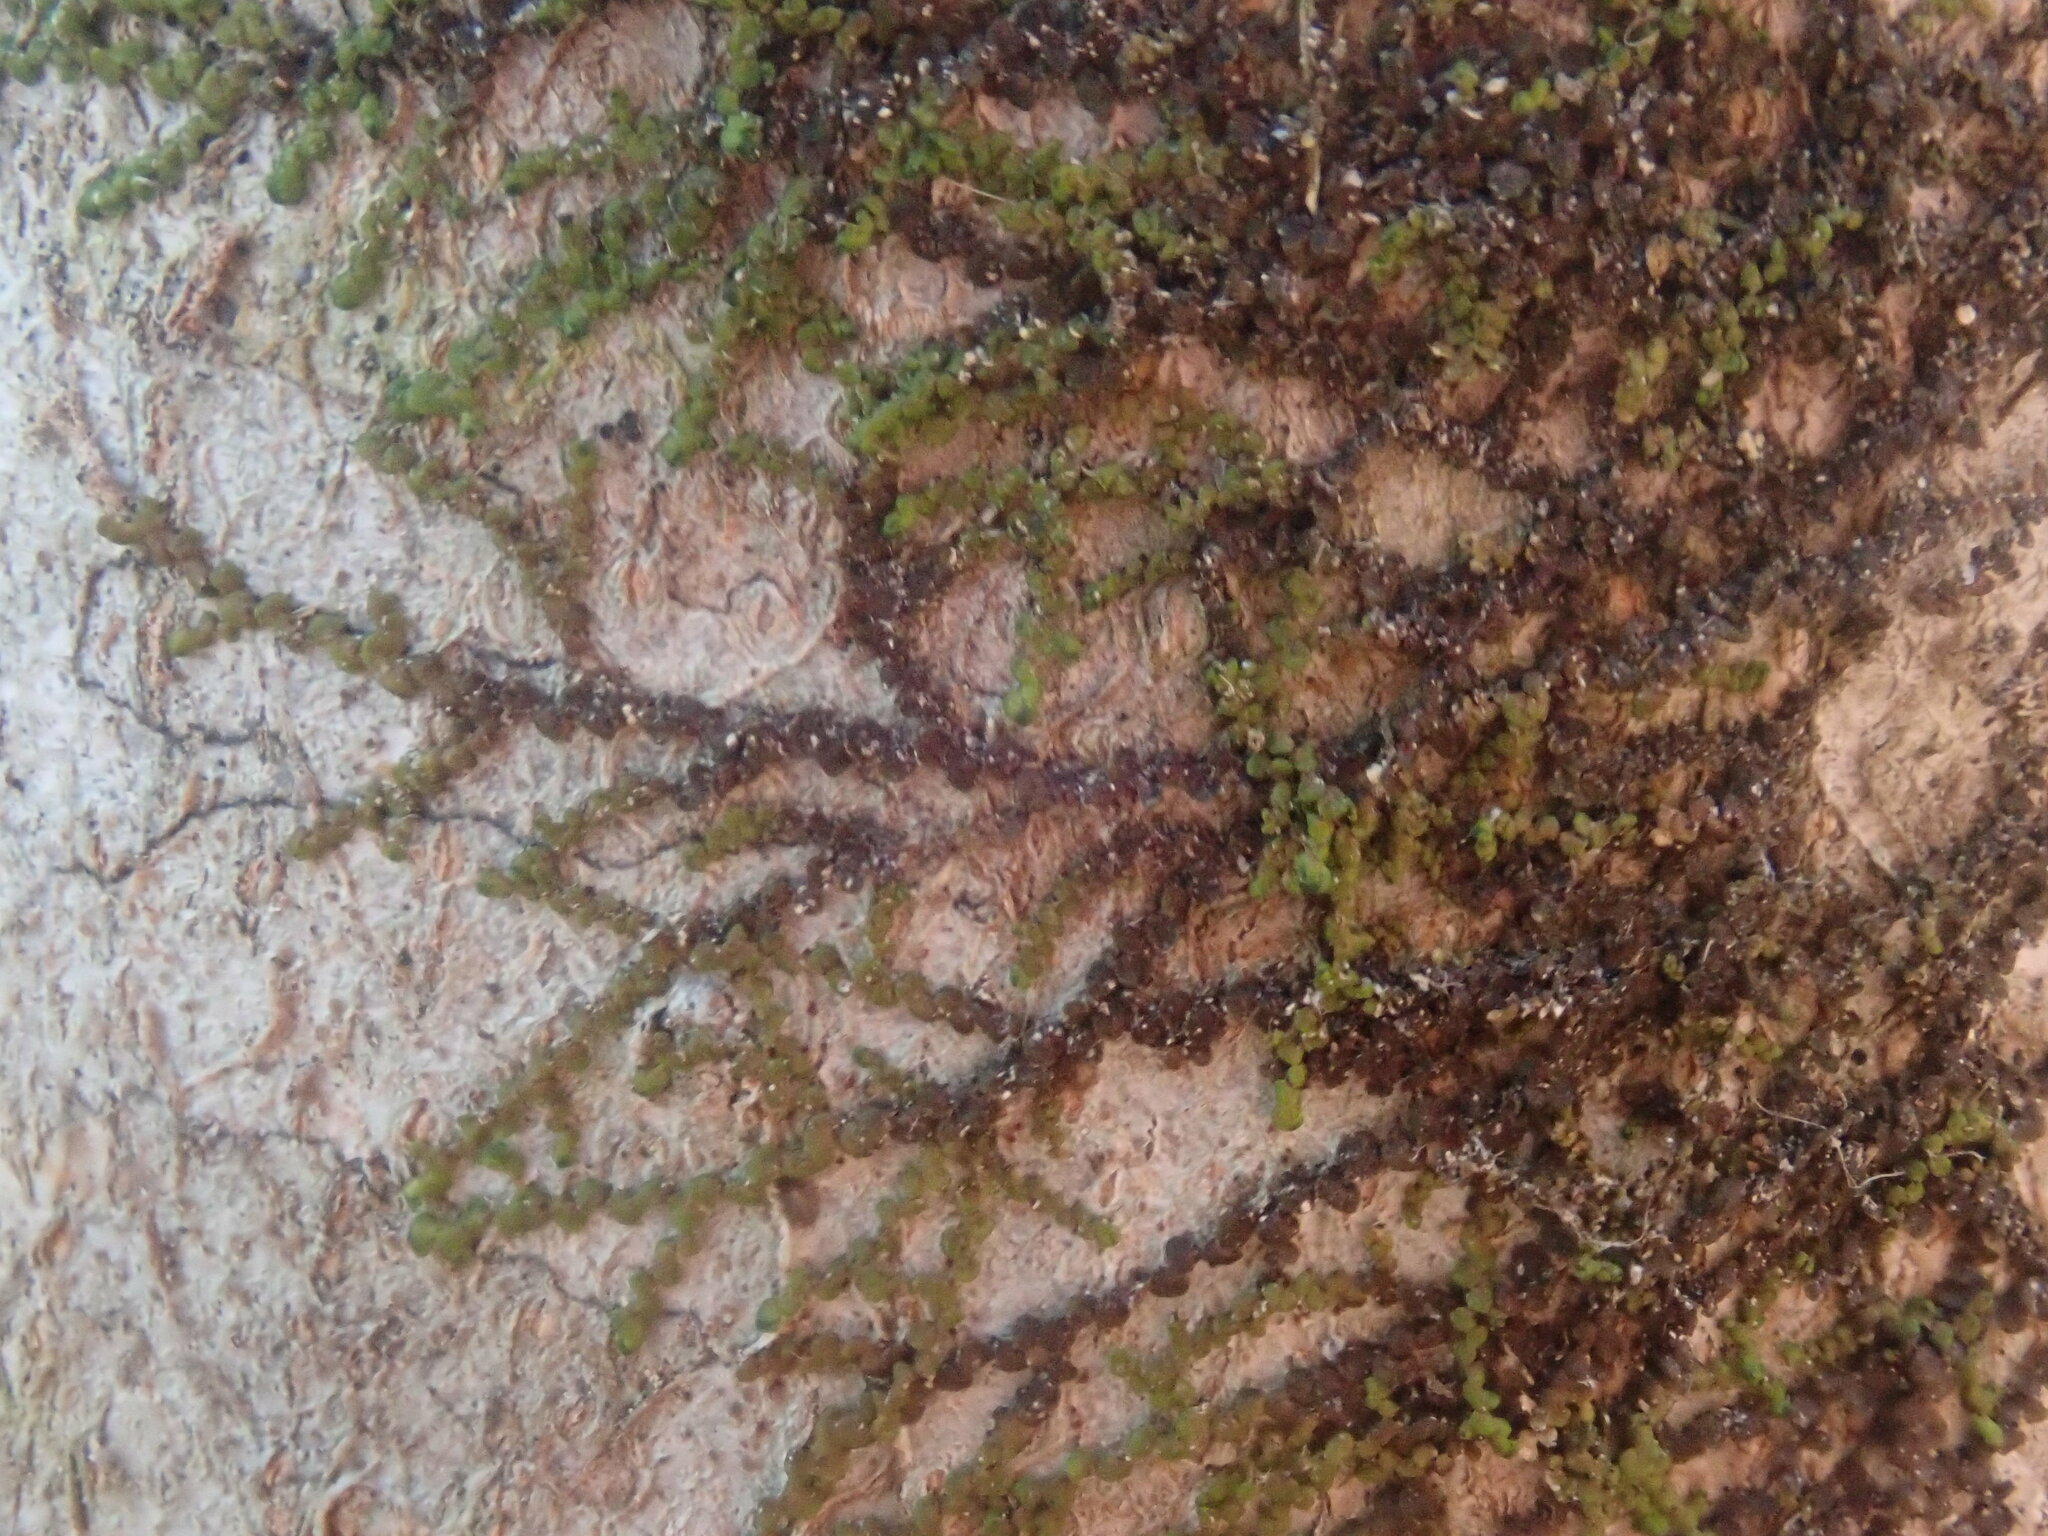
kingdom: Plantae
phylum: Marchantiophyta
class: Jungermanniopsida
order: Porellales
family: Frullaniaceae
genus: Frullania
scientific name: Frullania
